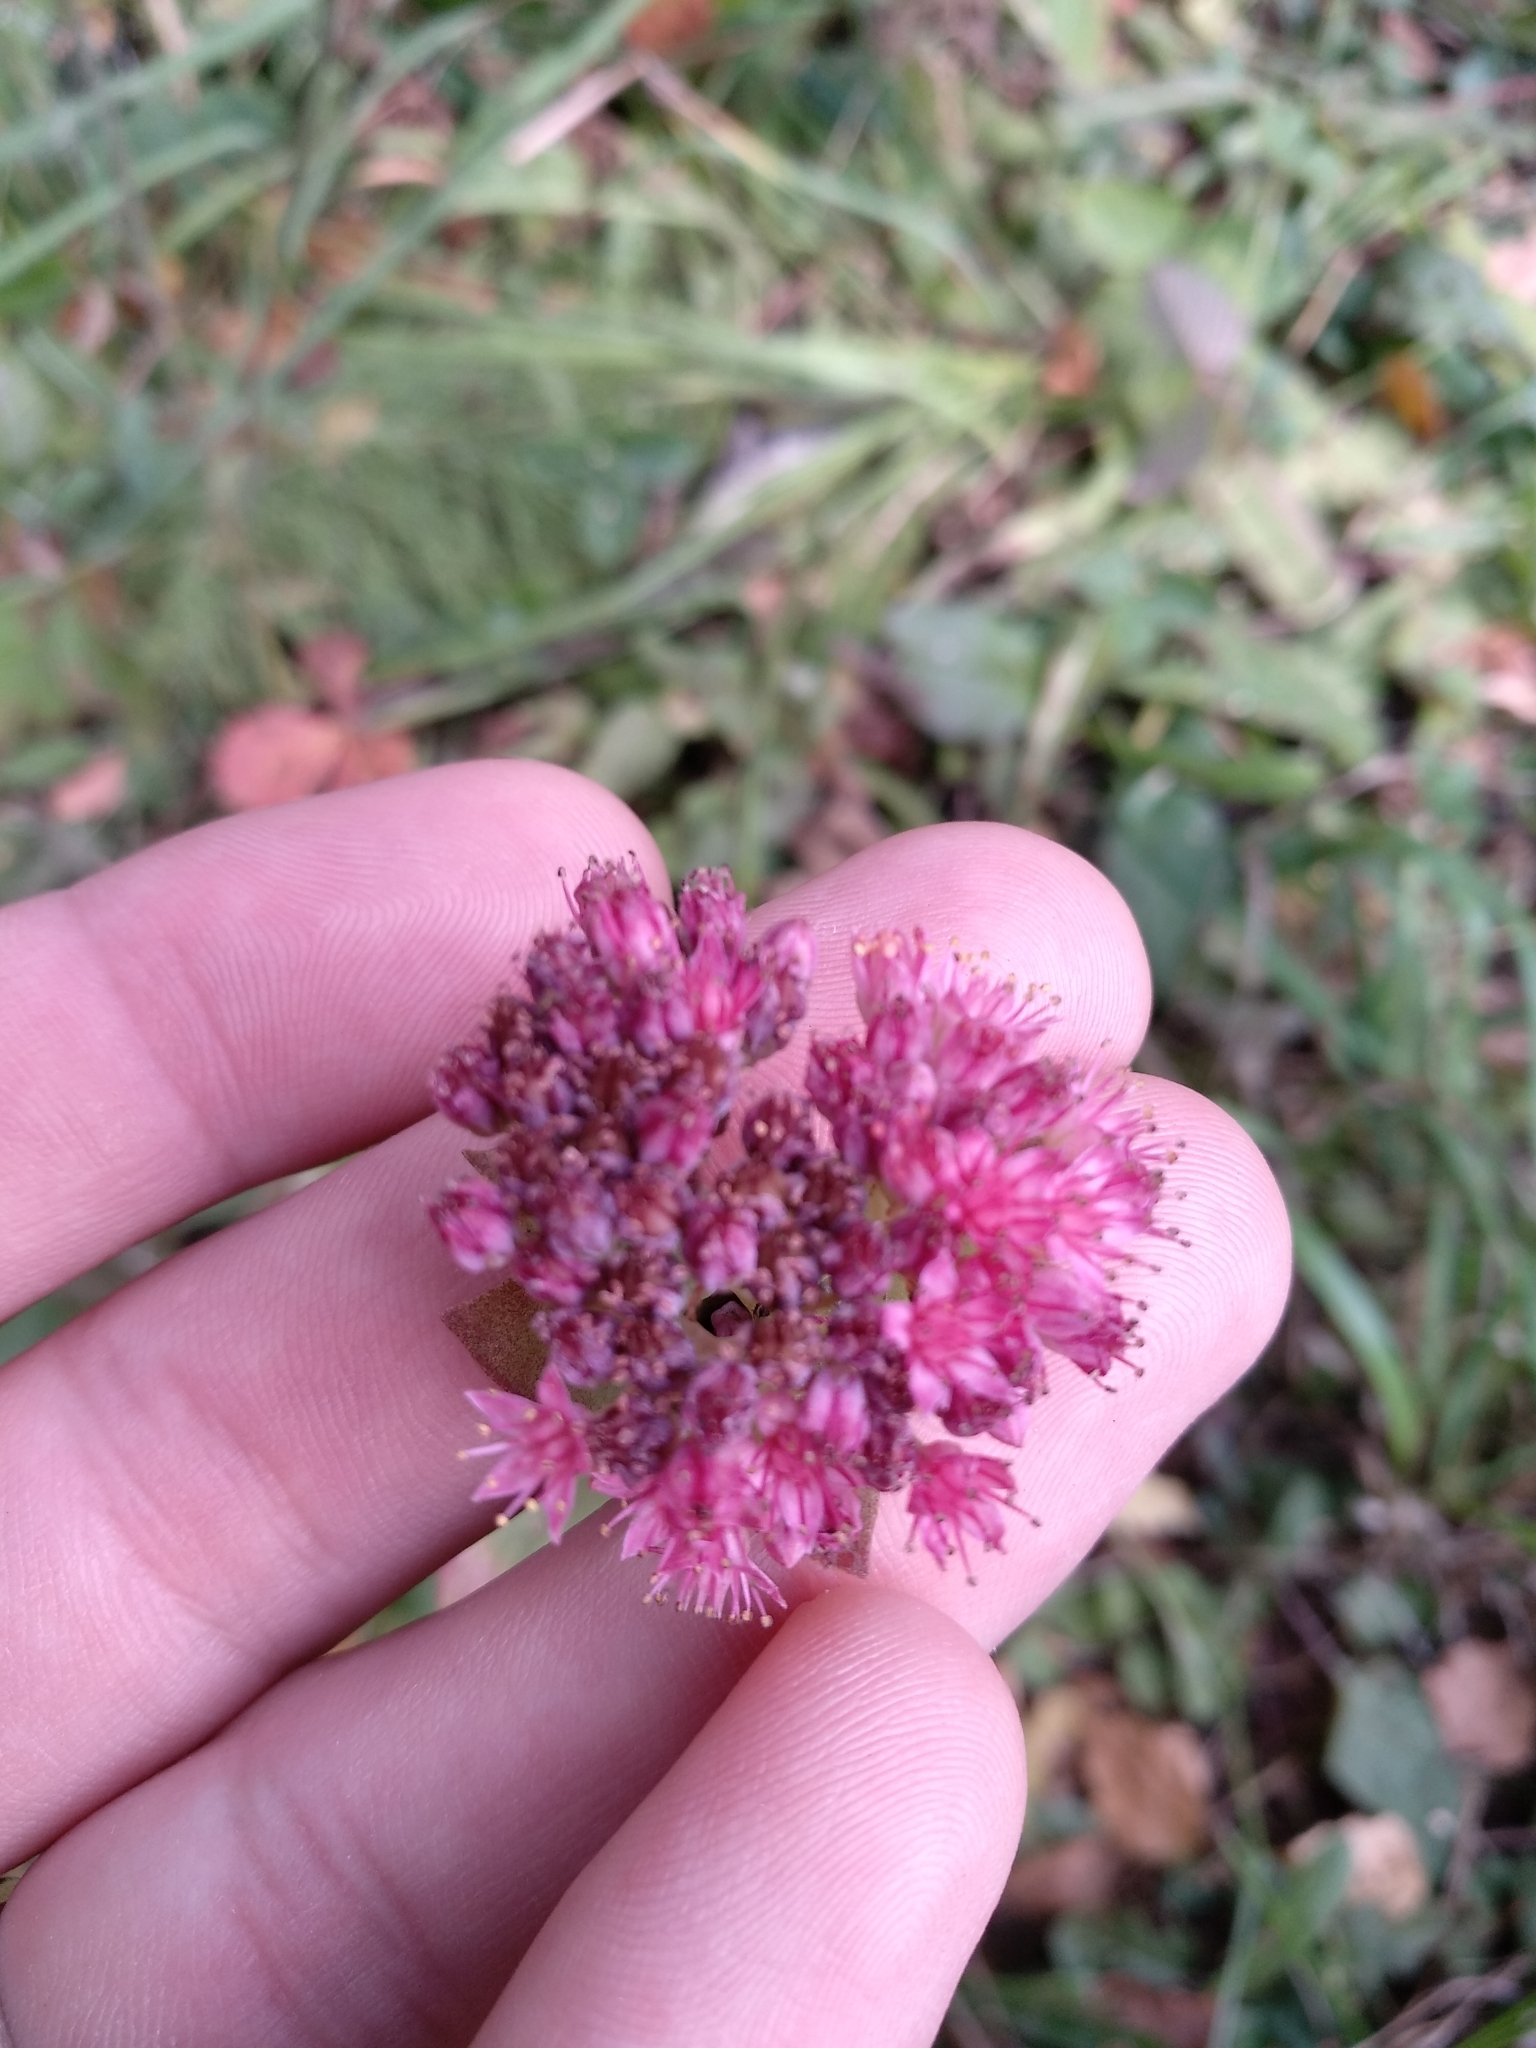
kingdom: Plantae
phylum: Tracheophyta
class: Magnoliopsida
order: Saxifragales
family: Crassulaceae
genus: Hylotelephium
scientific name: Hylotelephium telephium
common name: Live-forever
